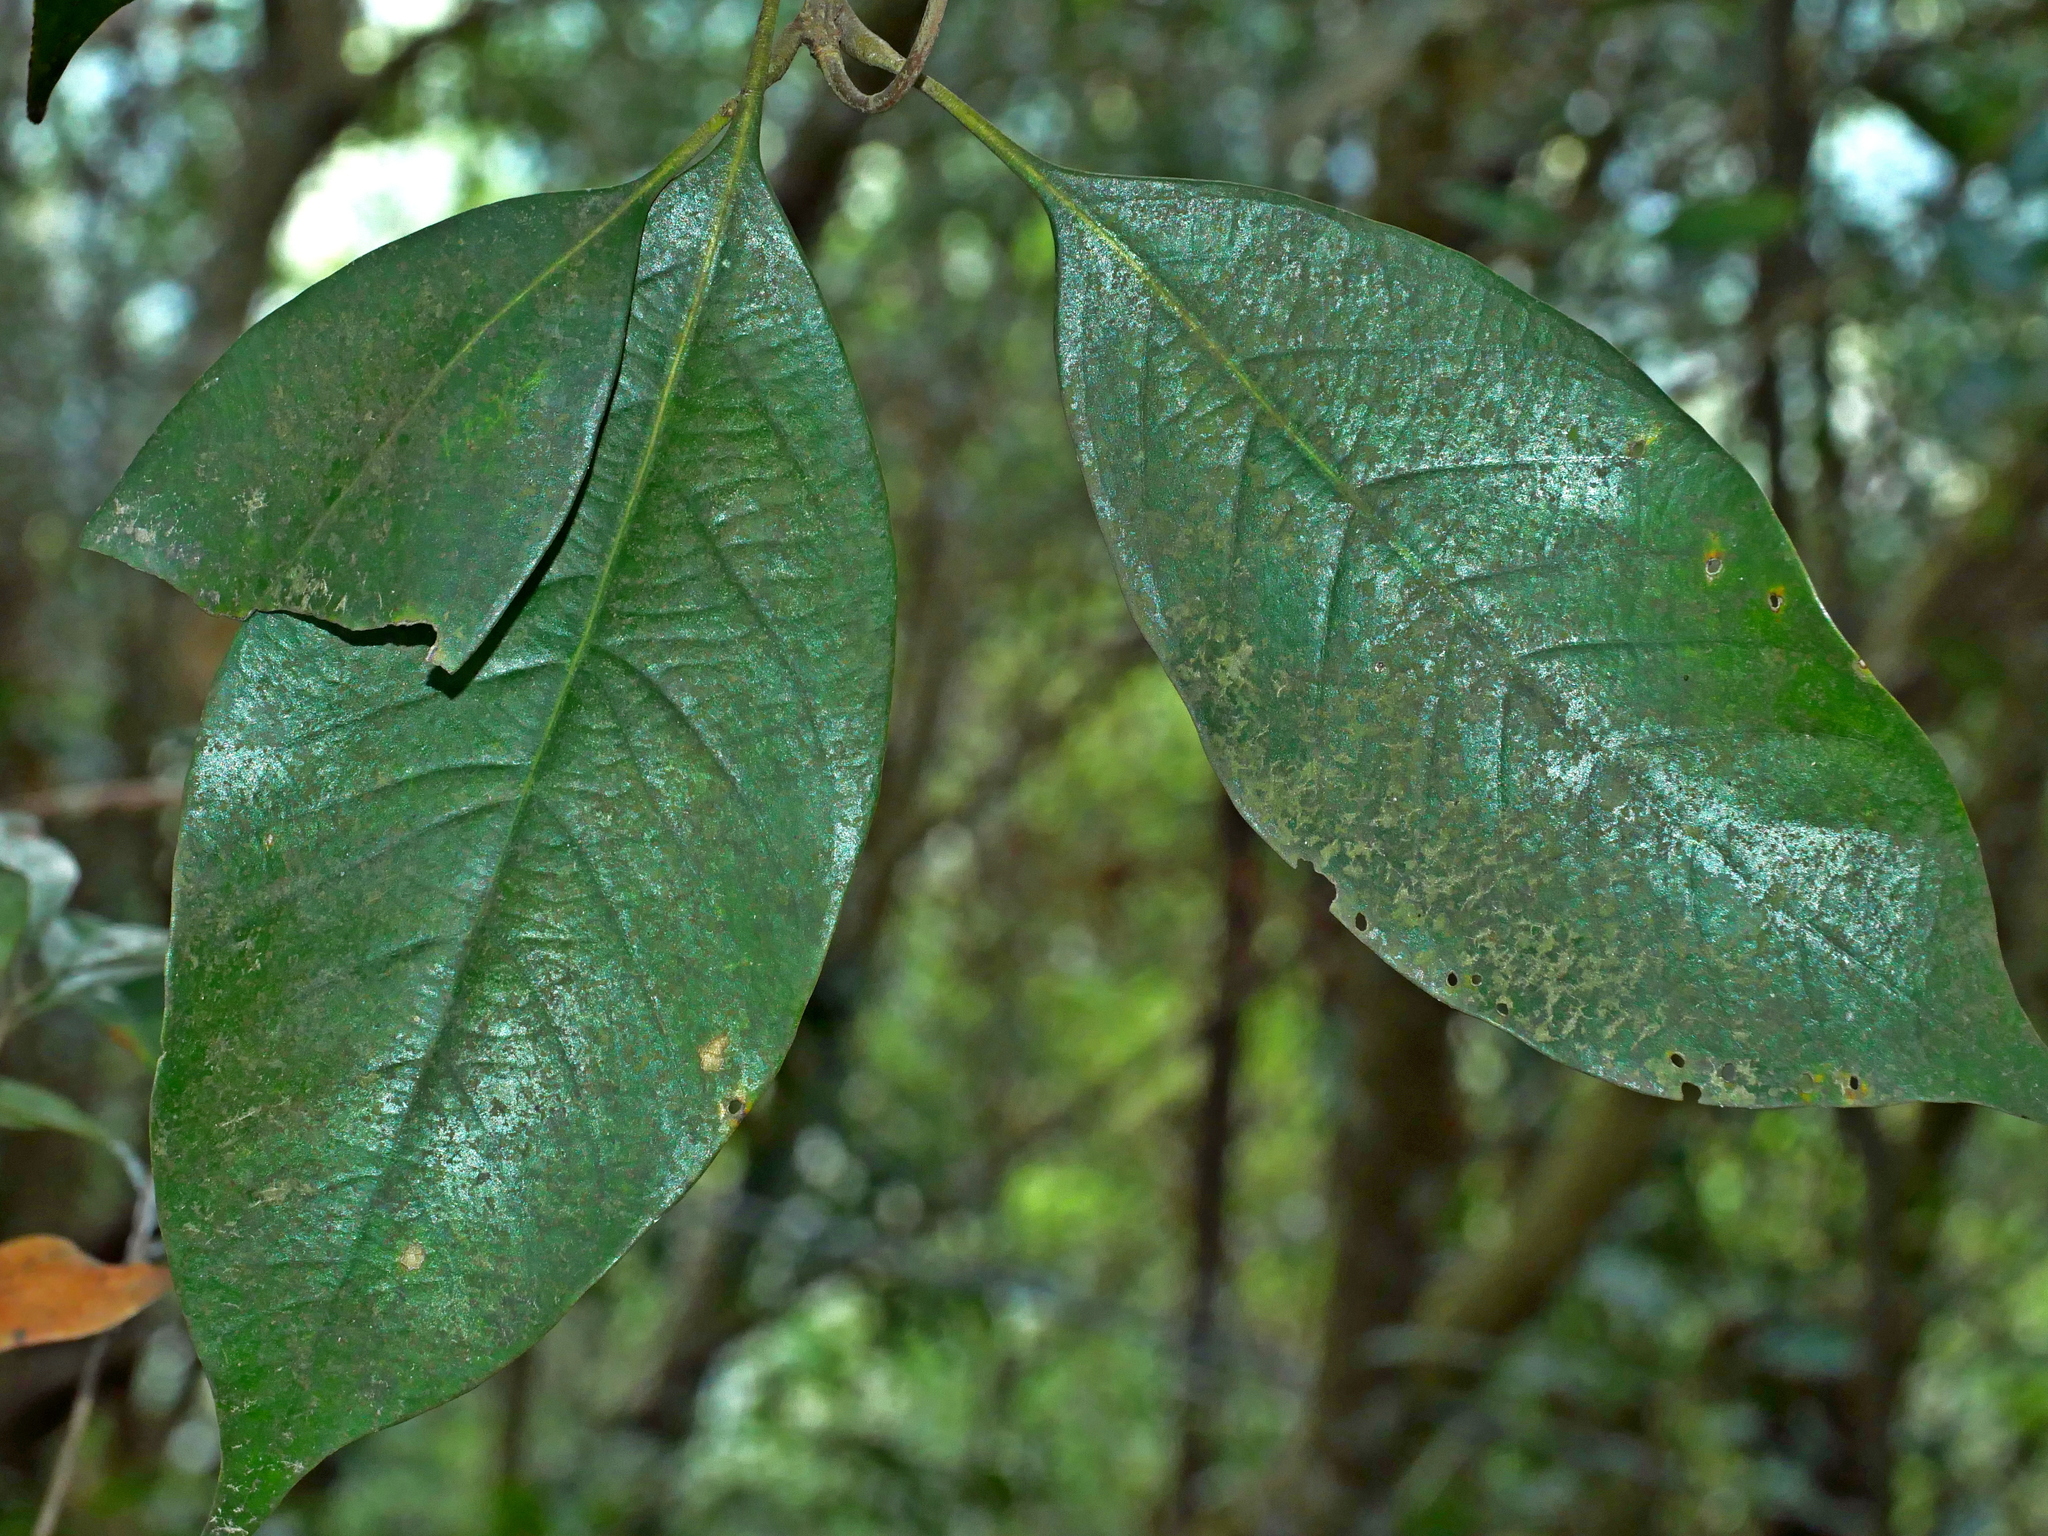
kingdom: Plantae
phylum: Tracheophyta
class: Magnoliopsida
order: Fagales
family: Fagaceae
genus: Lithocarpus
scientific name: Lithocarpus taitoensis
